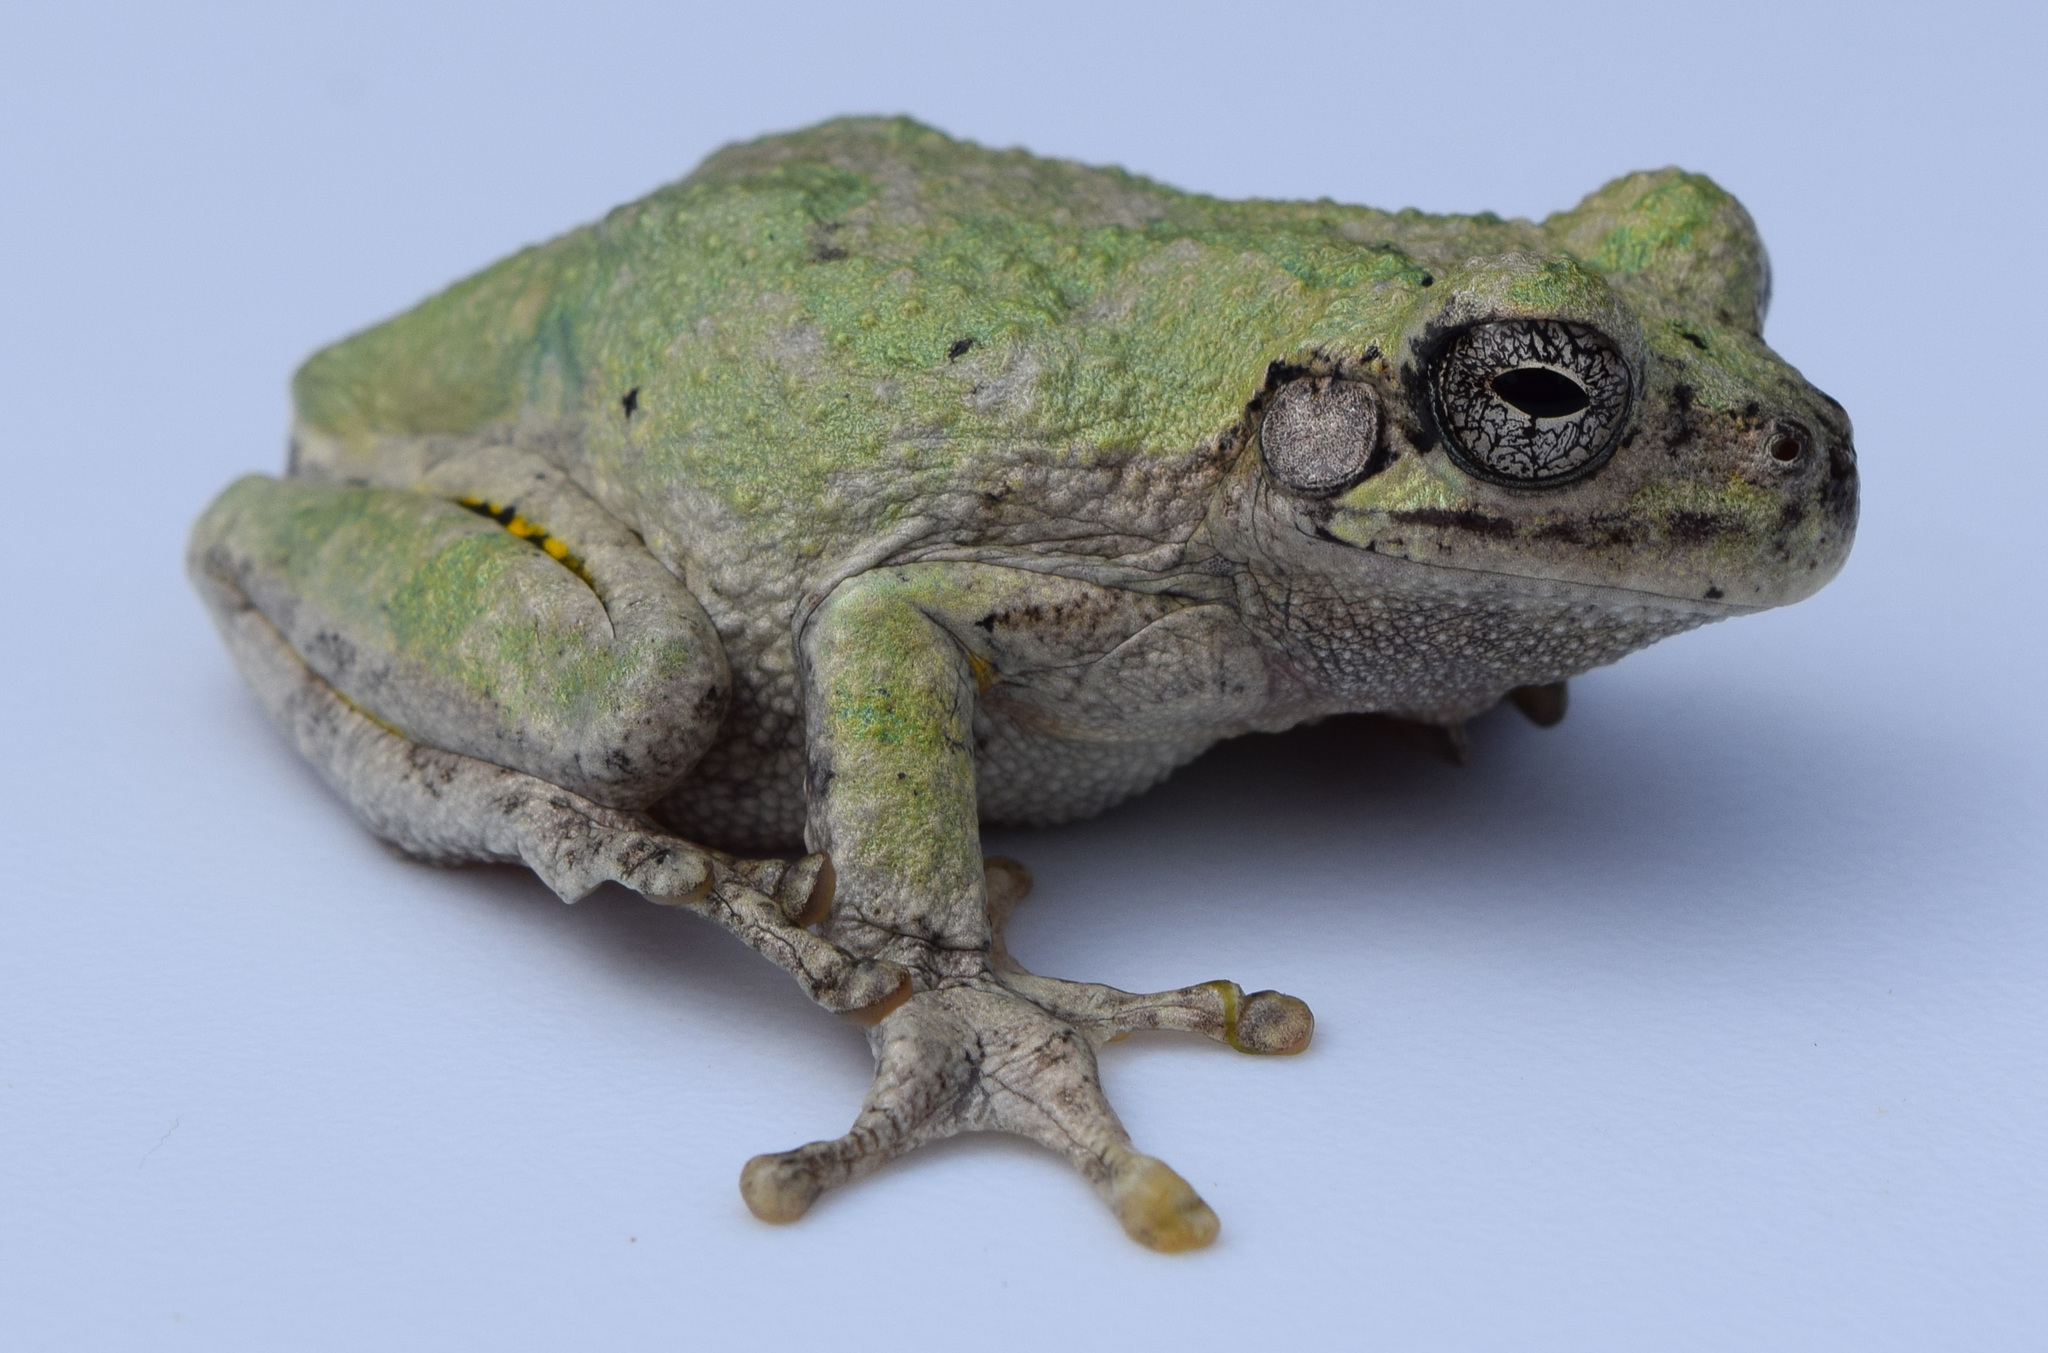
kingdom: Animalia
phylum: Chordata
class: Amphibia
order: Anura
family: Hylidae
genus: Dryophytes
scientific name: Dryophytes chrysoscelis
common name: Cope's gray treefrog
